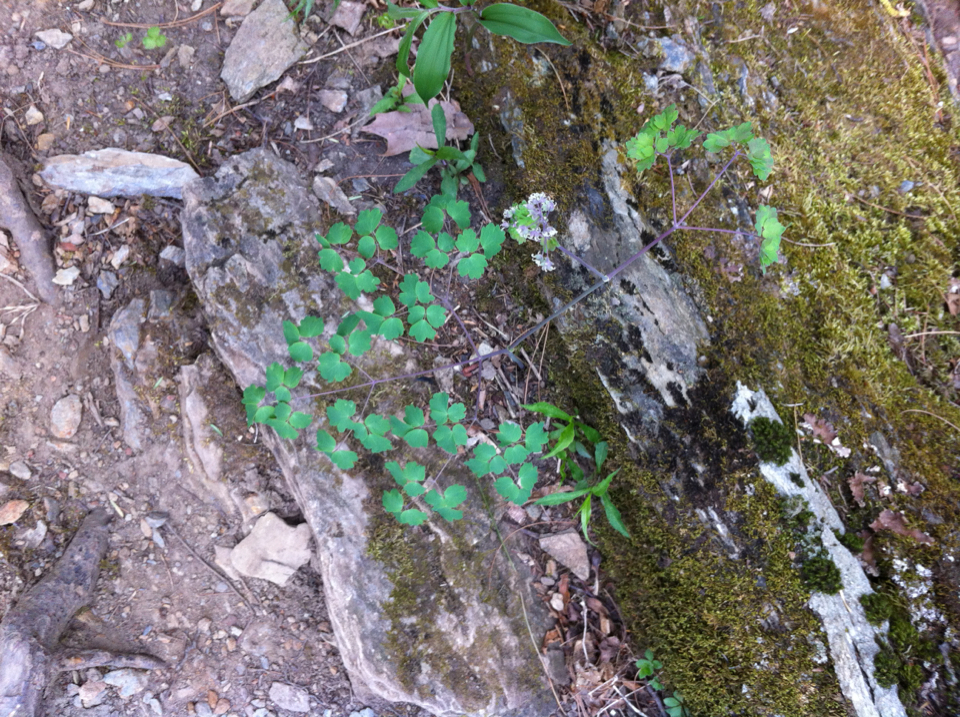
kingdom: Plantae
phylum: Tracheophyta
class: Magnoliopsida
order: Ranunculales
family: Ranunculaceae
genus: Thalictrum
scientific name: Thalictrum dioicum
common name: Early meadow-rue
